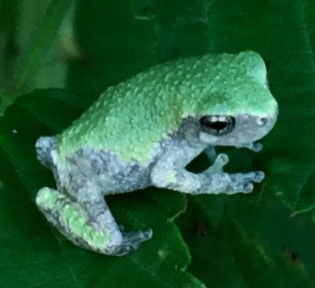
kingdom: Animalia
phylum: Chordata
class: Amphibia
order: Anura
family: Hylidae
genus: Dryophytes
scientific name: Dryophytes chrysoscelis
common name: Cope's gray treefrog
